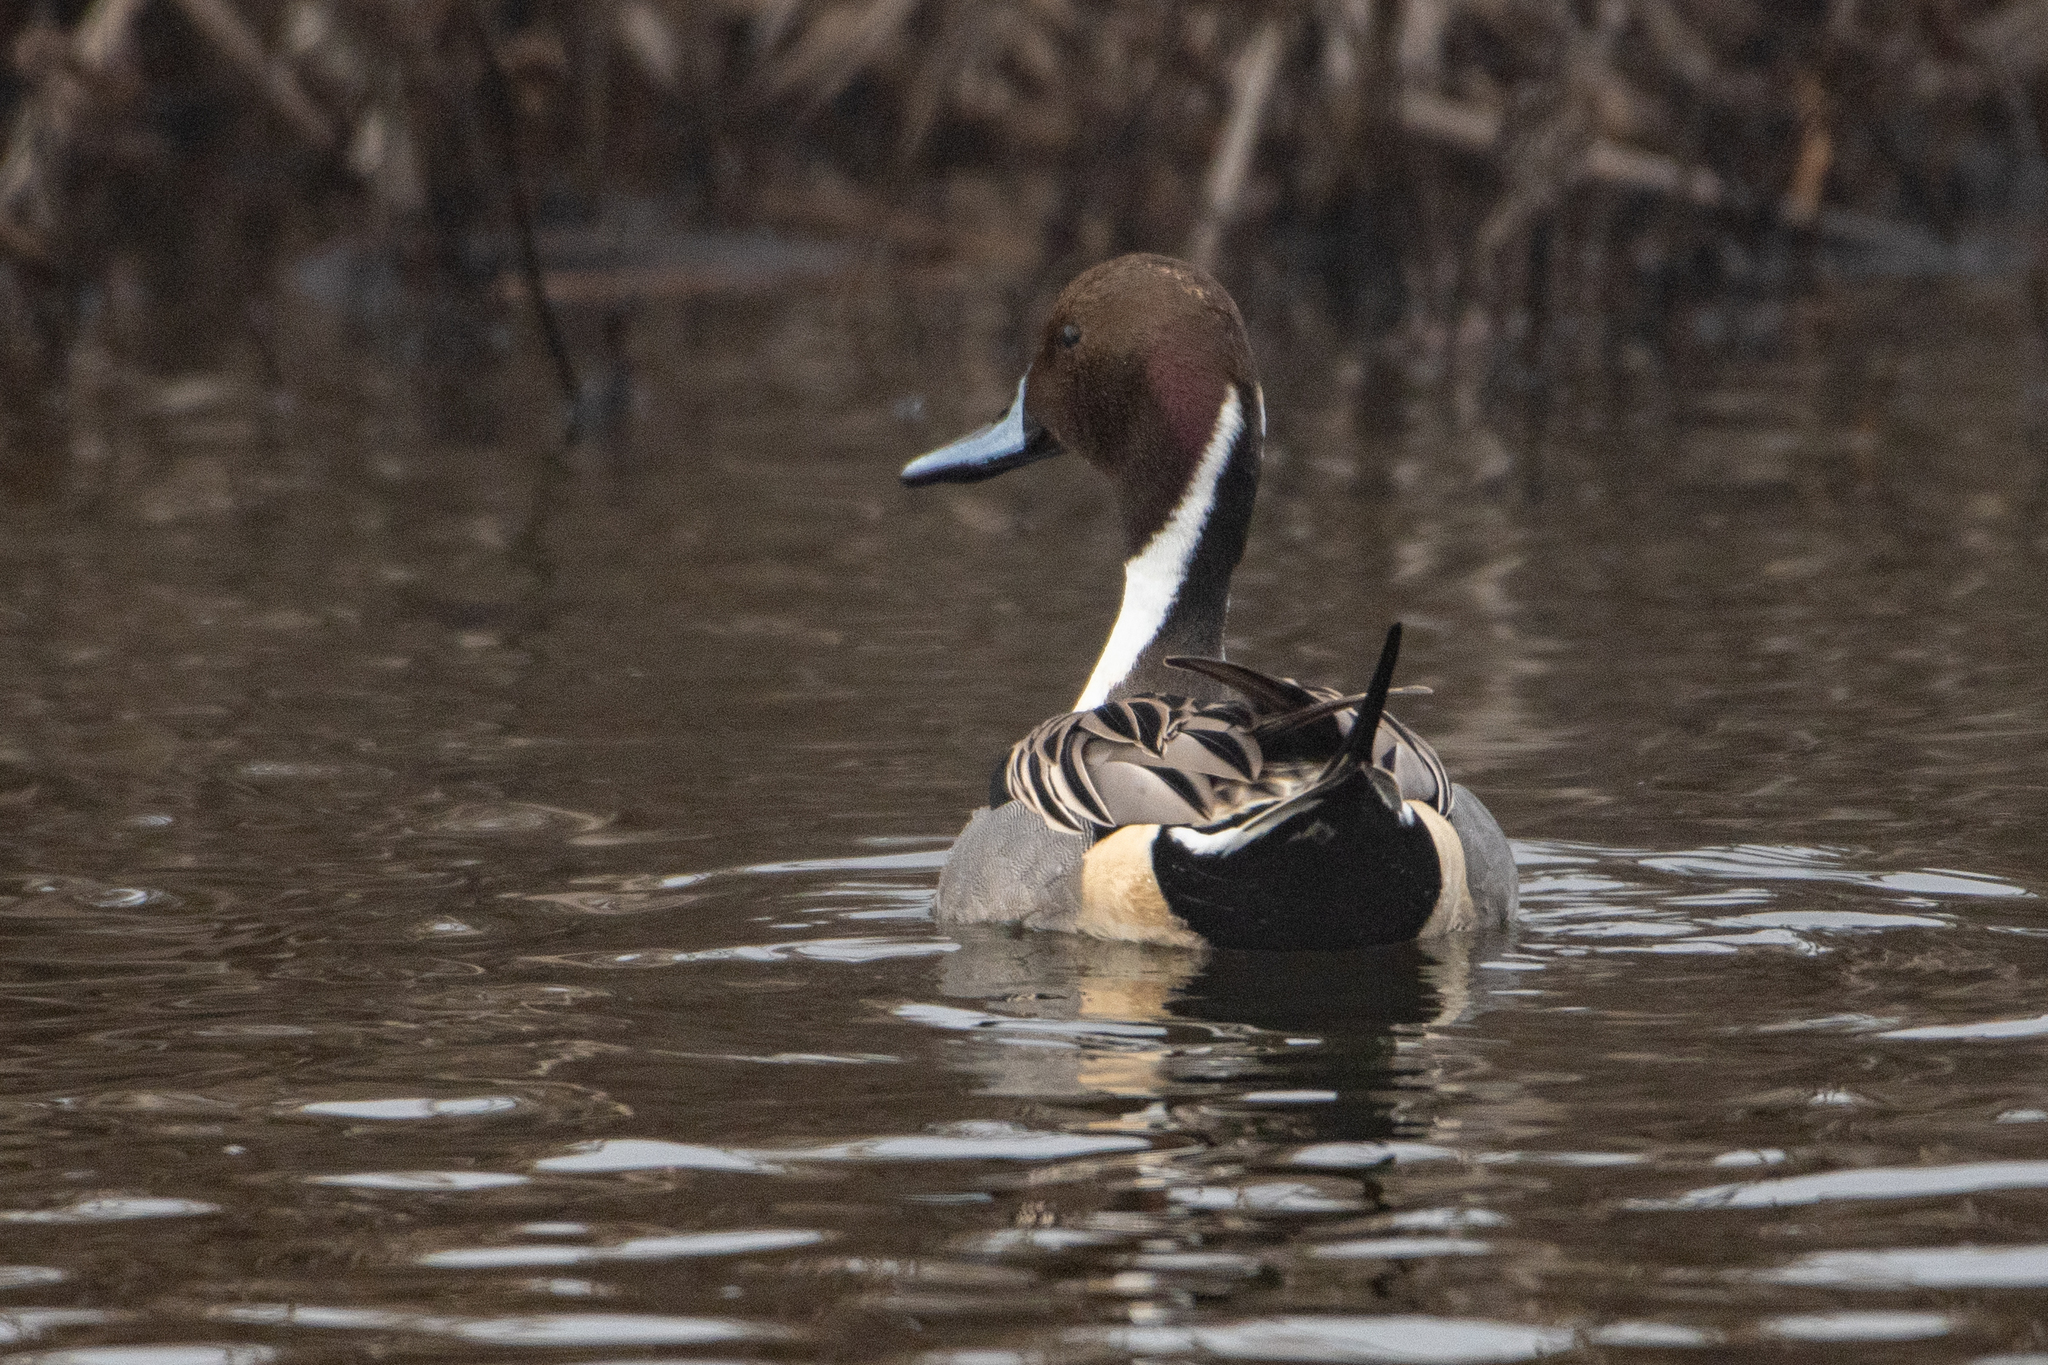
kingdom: Animalia
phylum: Chordata
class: Aves
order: Anseriformes
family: Anatidae
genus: Anas
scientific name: Anas acuta
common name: Northern pintail
